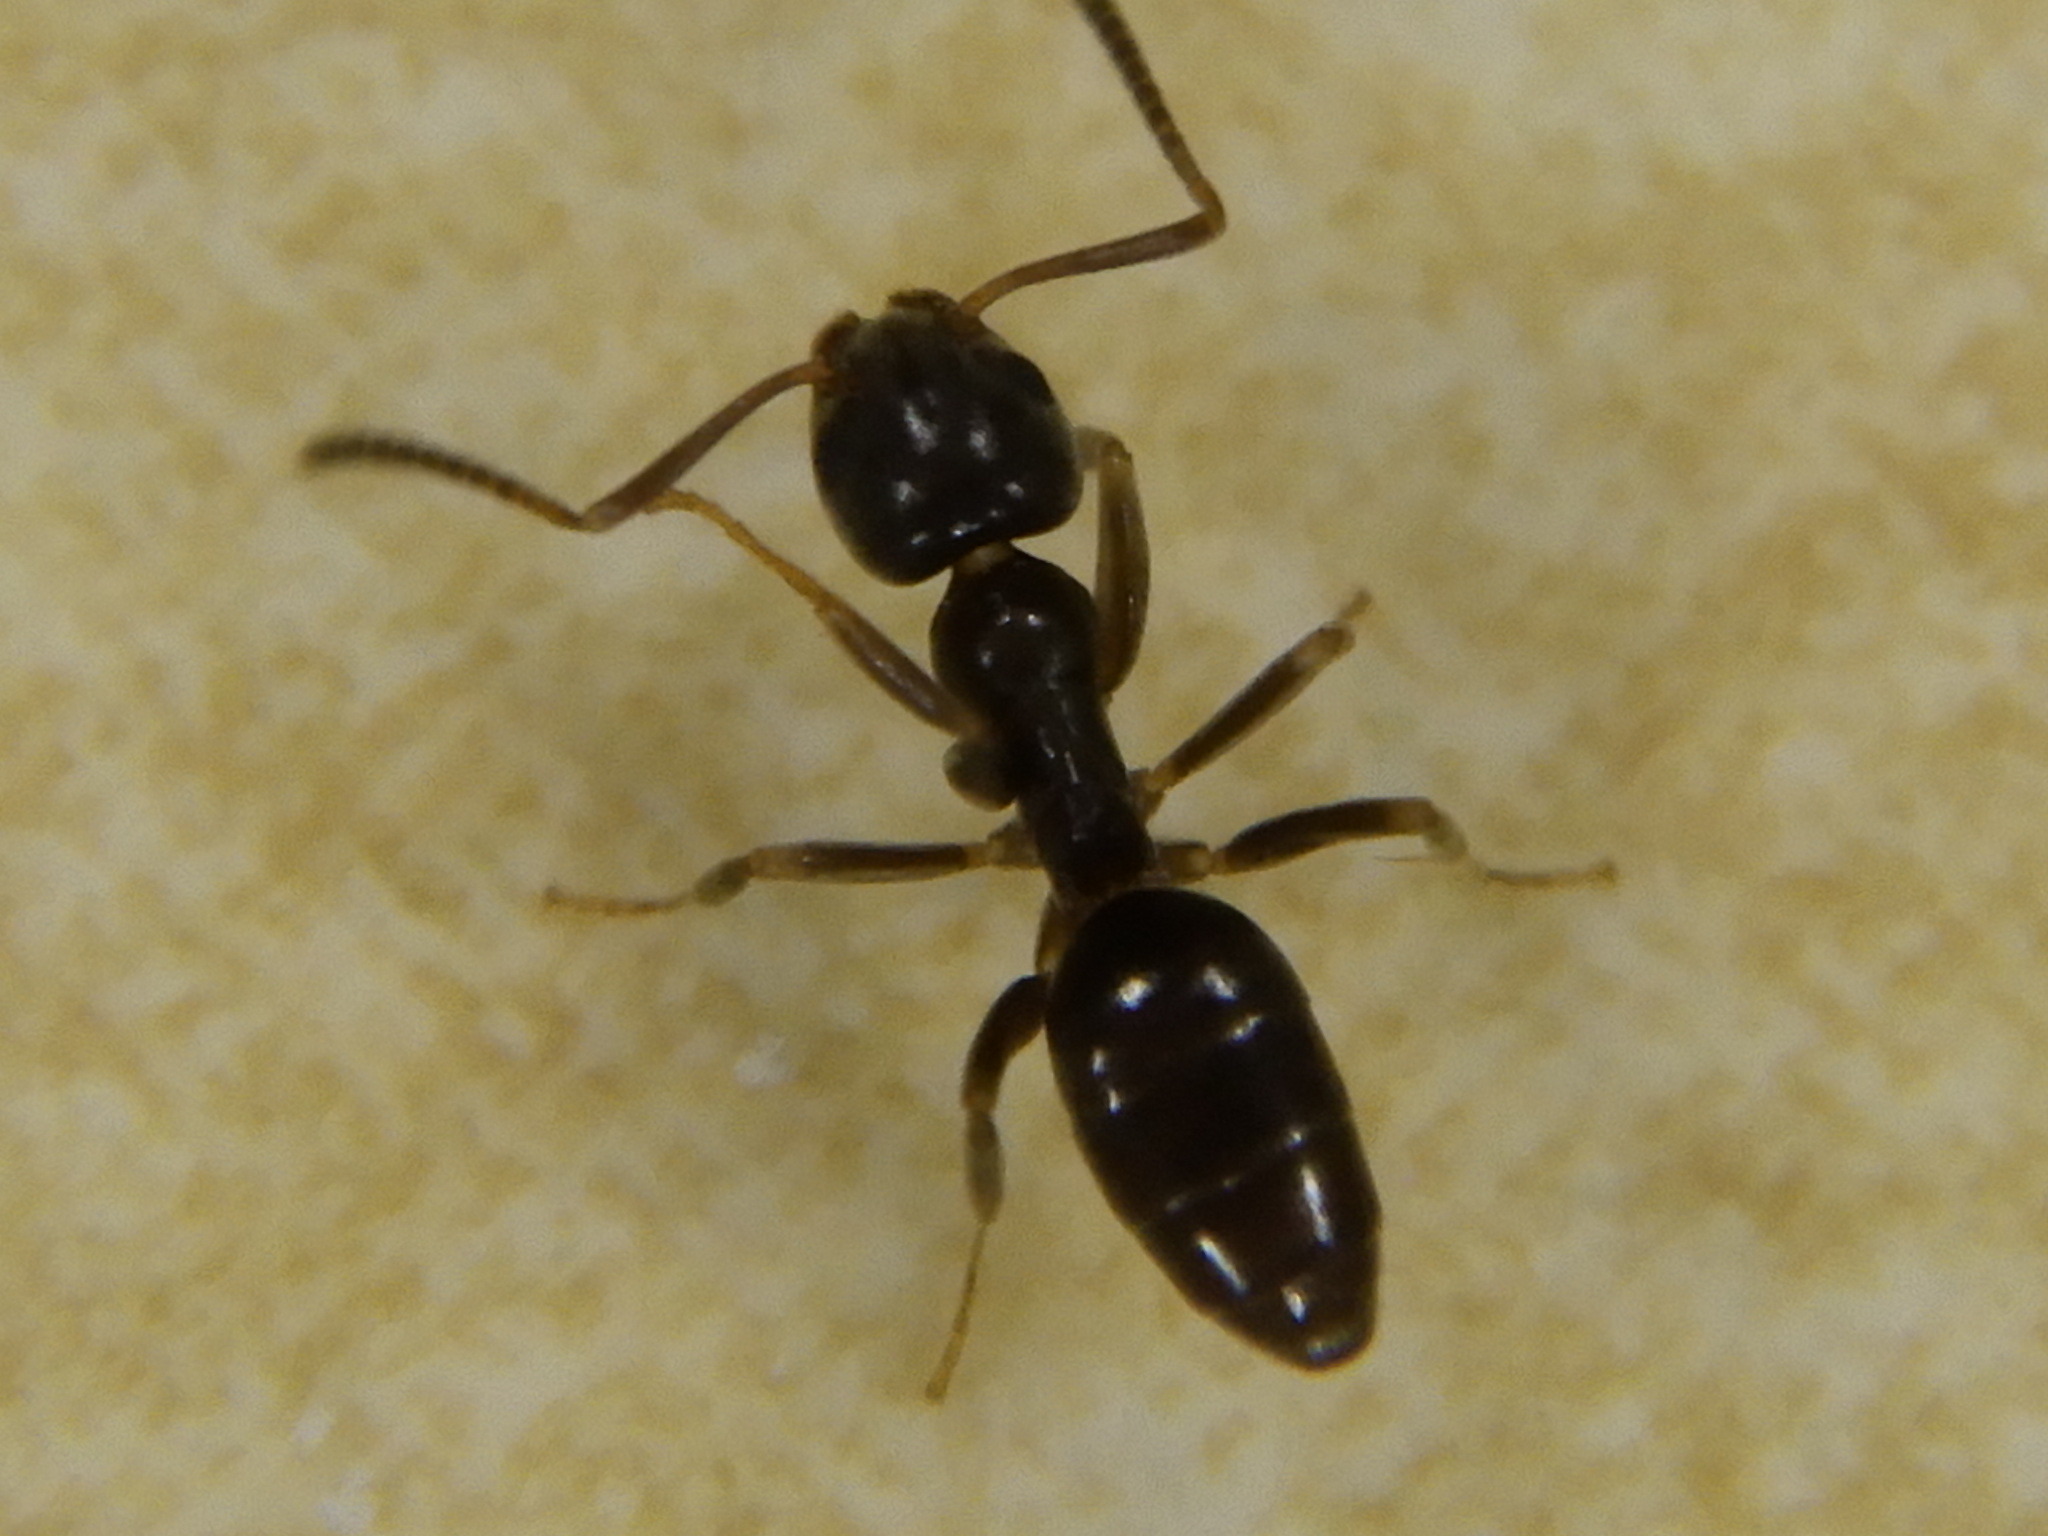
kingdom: Animalia
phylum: Arthropoda
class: Insecta
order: Hymenoptera
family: Formicidae
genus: Tapinoma
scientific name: Tapinoma sessile
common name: Odorous house ant
